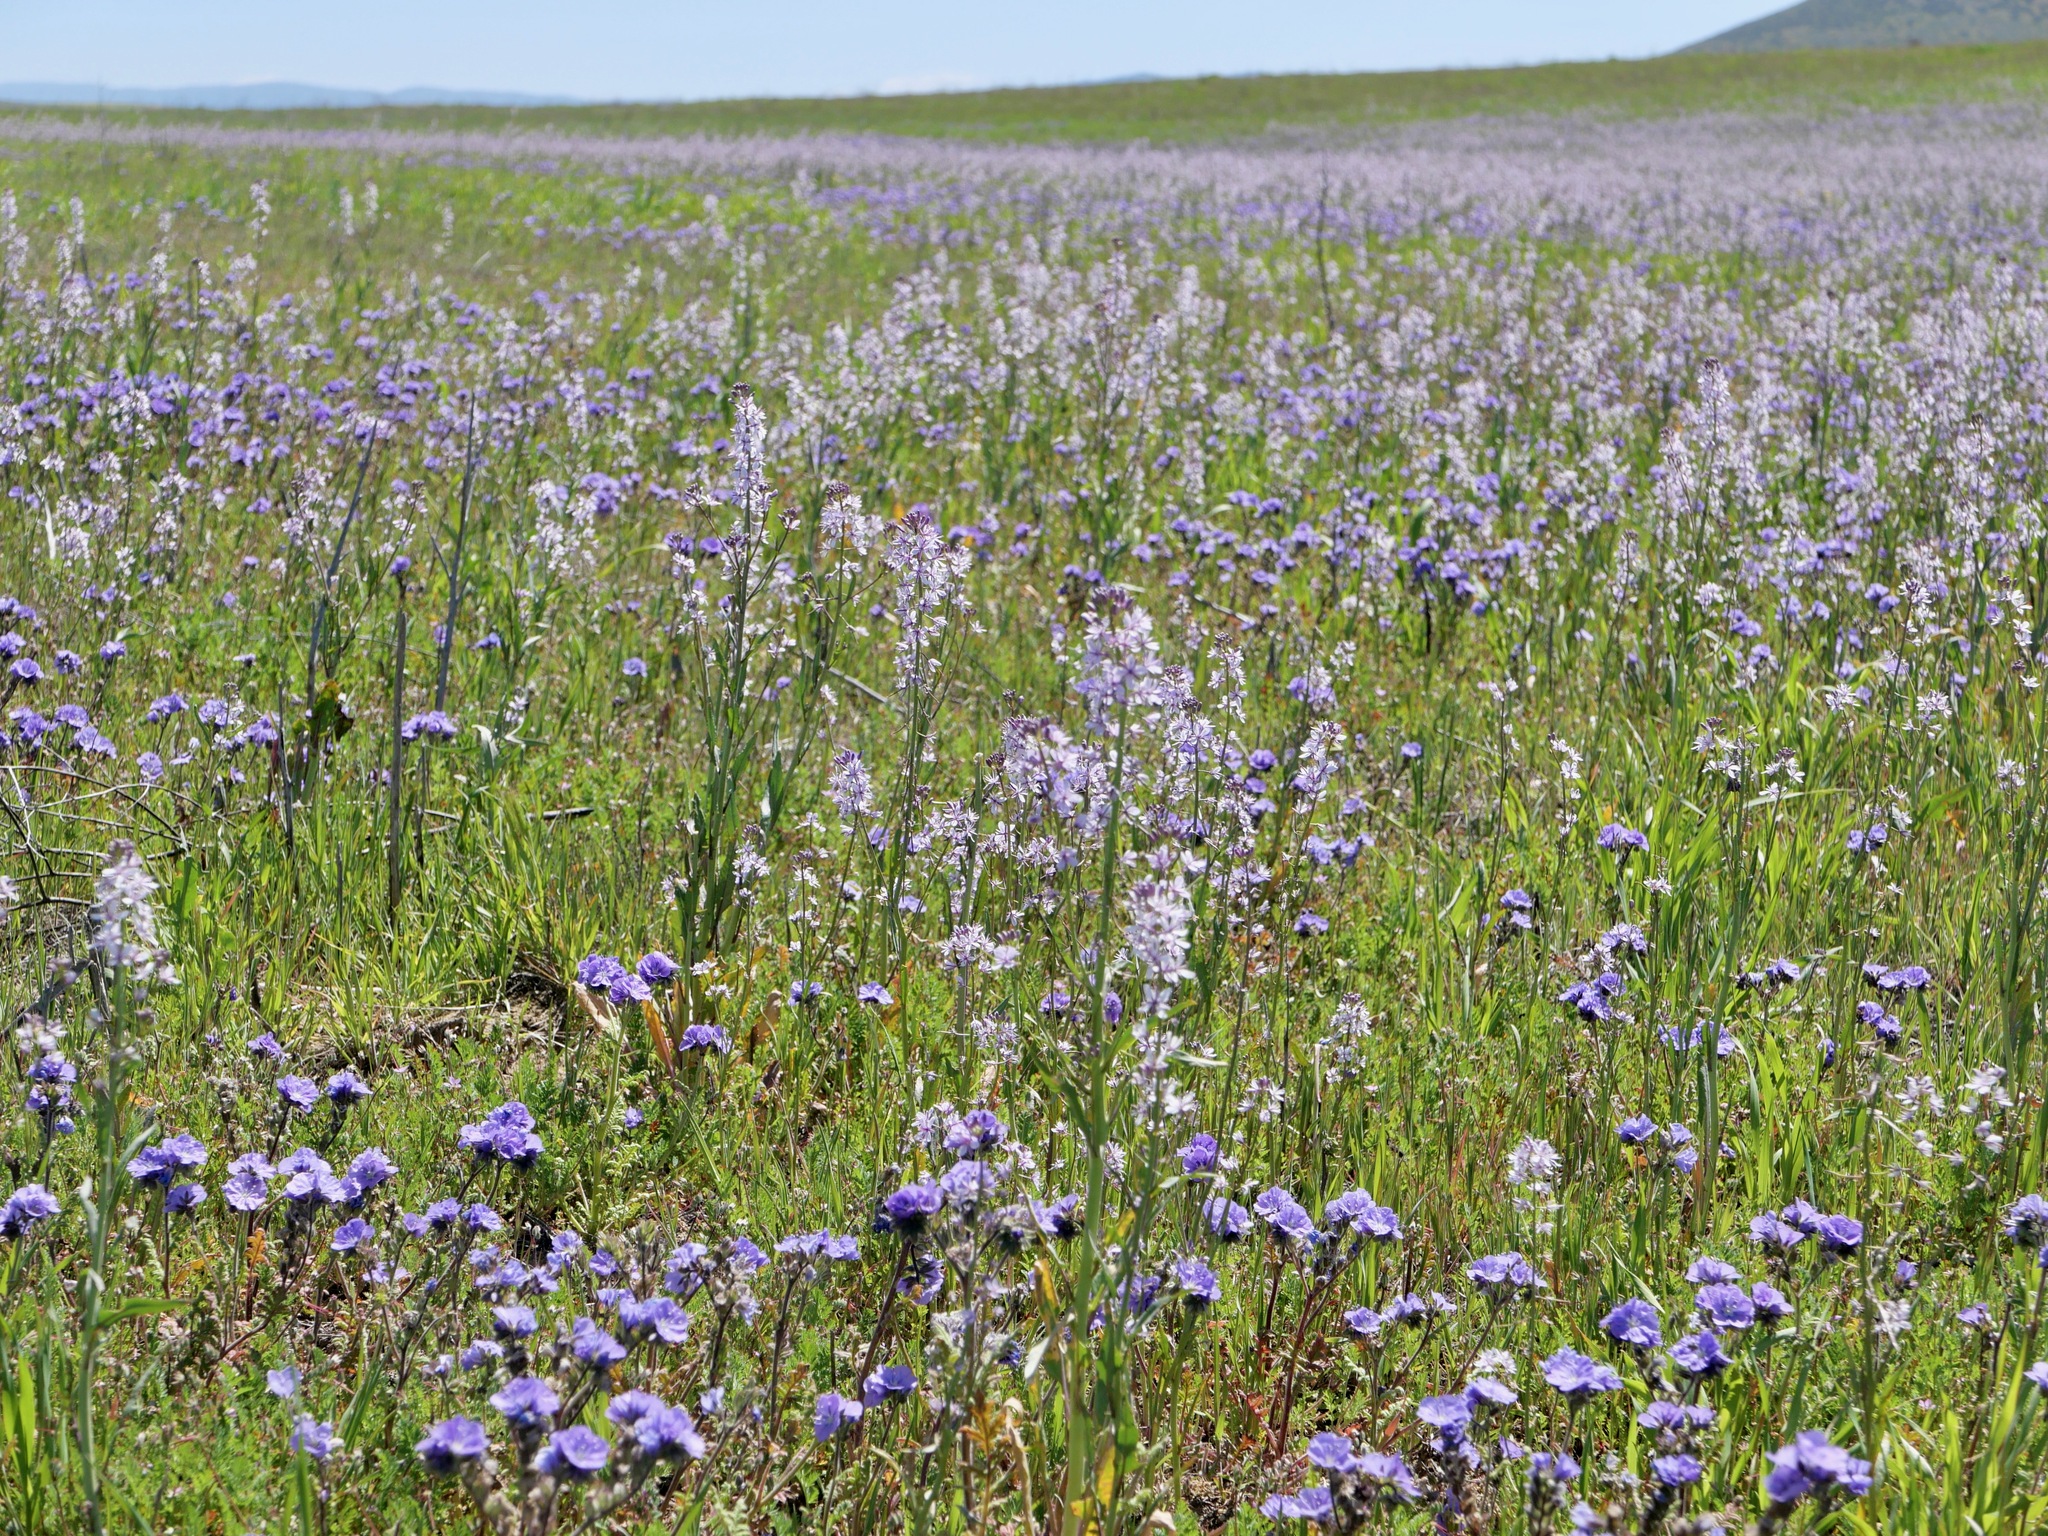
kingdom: Plantae
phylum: Tracheophyta
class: Magnoliopsida
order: Brassicales
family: Brassicaceae
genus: Streptanthus
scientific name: Streptanthus anceps
